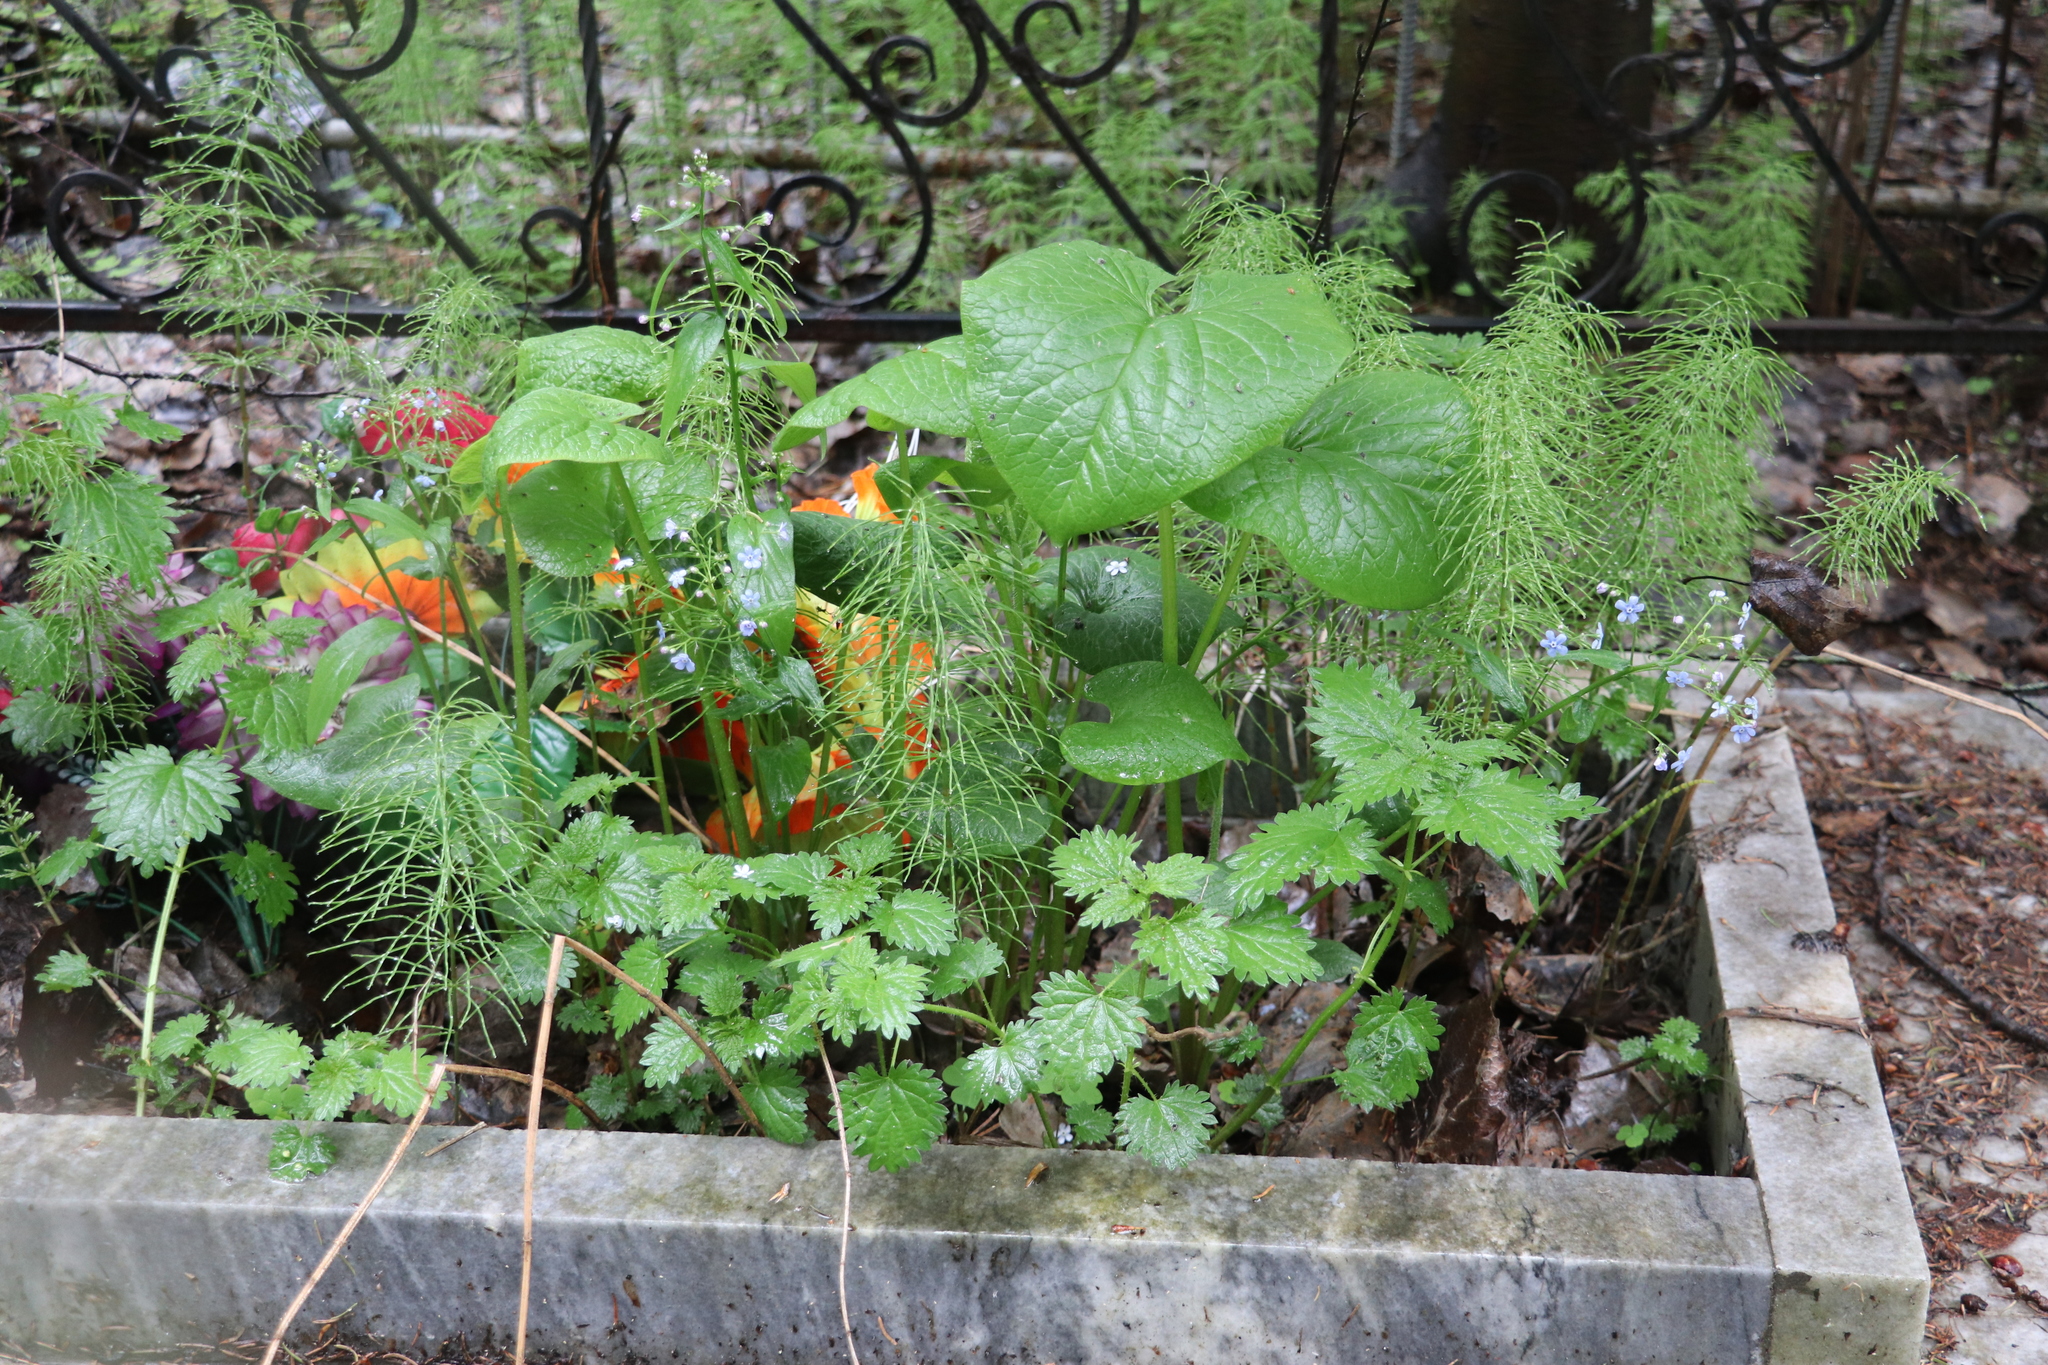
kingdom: Plantae
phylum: Tracheophyta
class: Magnoliopsida
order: Boraginales
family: Boraginaceae
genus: Brunnera
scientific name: Brunnera sibirica
